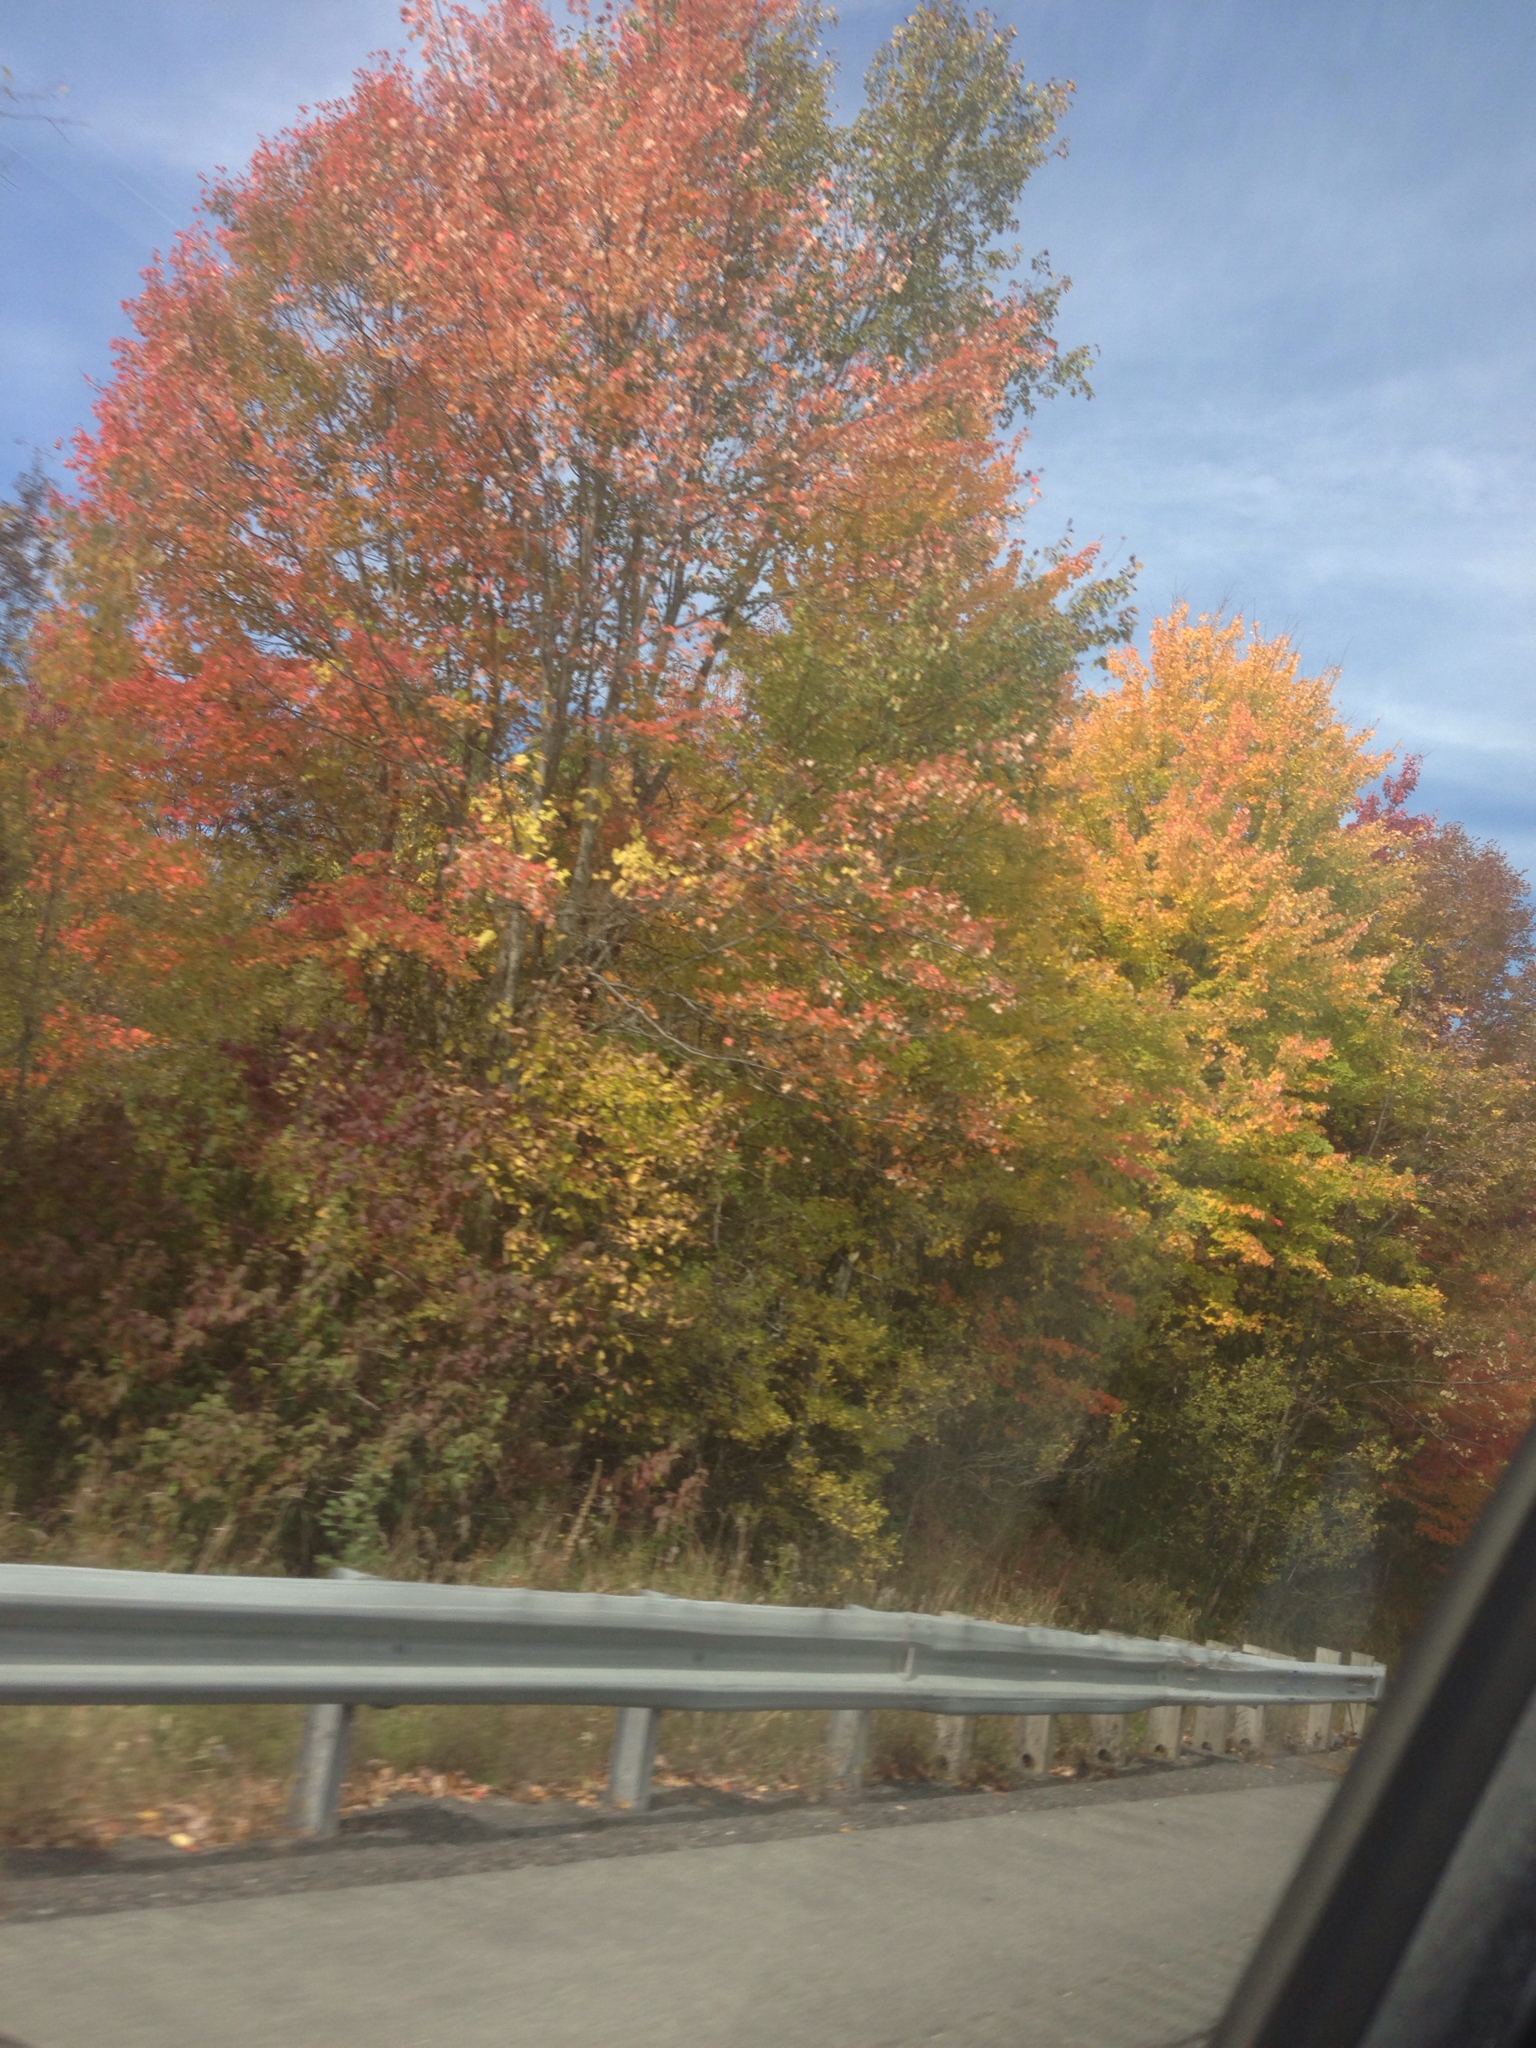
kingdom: Plantae
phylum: Tracheophyta
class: Magnoliopsida
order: Sapindales
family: Sapindaceae
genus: Acer
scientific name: Acer rubrum
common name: Red maple
